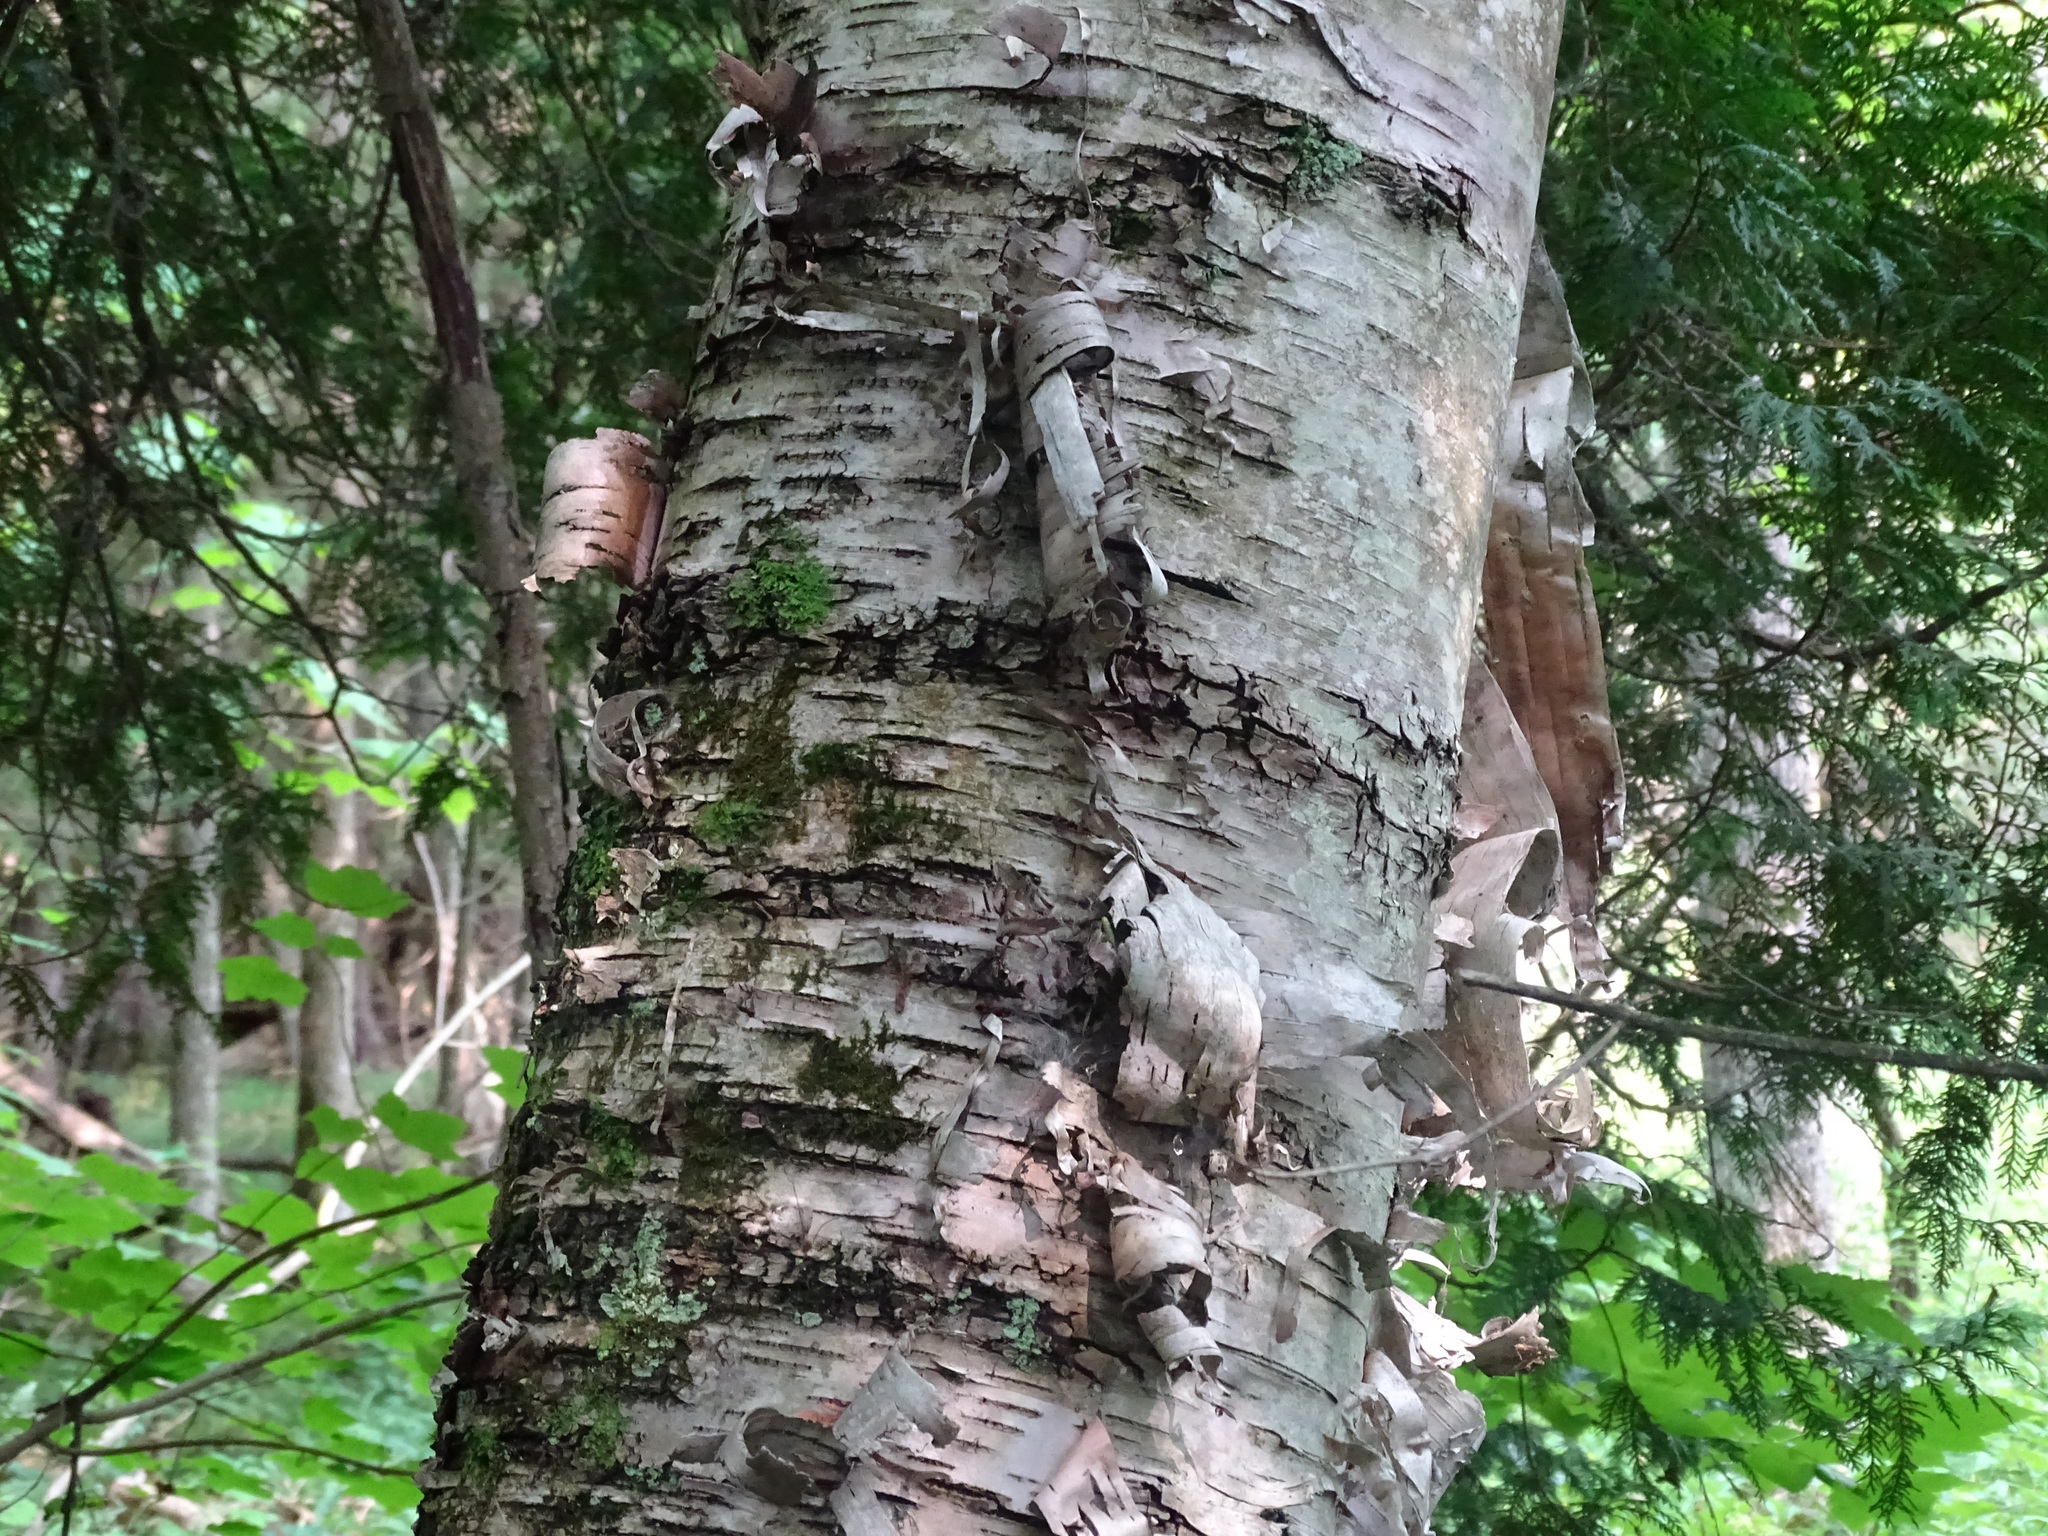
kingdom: Plantae
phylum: Tracheophyta
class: Magnoliopsida
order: Fagales
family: Betulaceae
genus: Betula
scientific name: Betula papyrifera
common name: Paper birch
